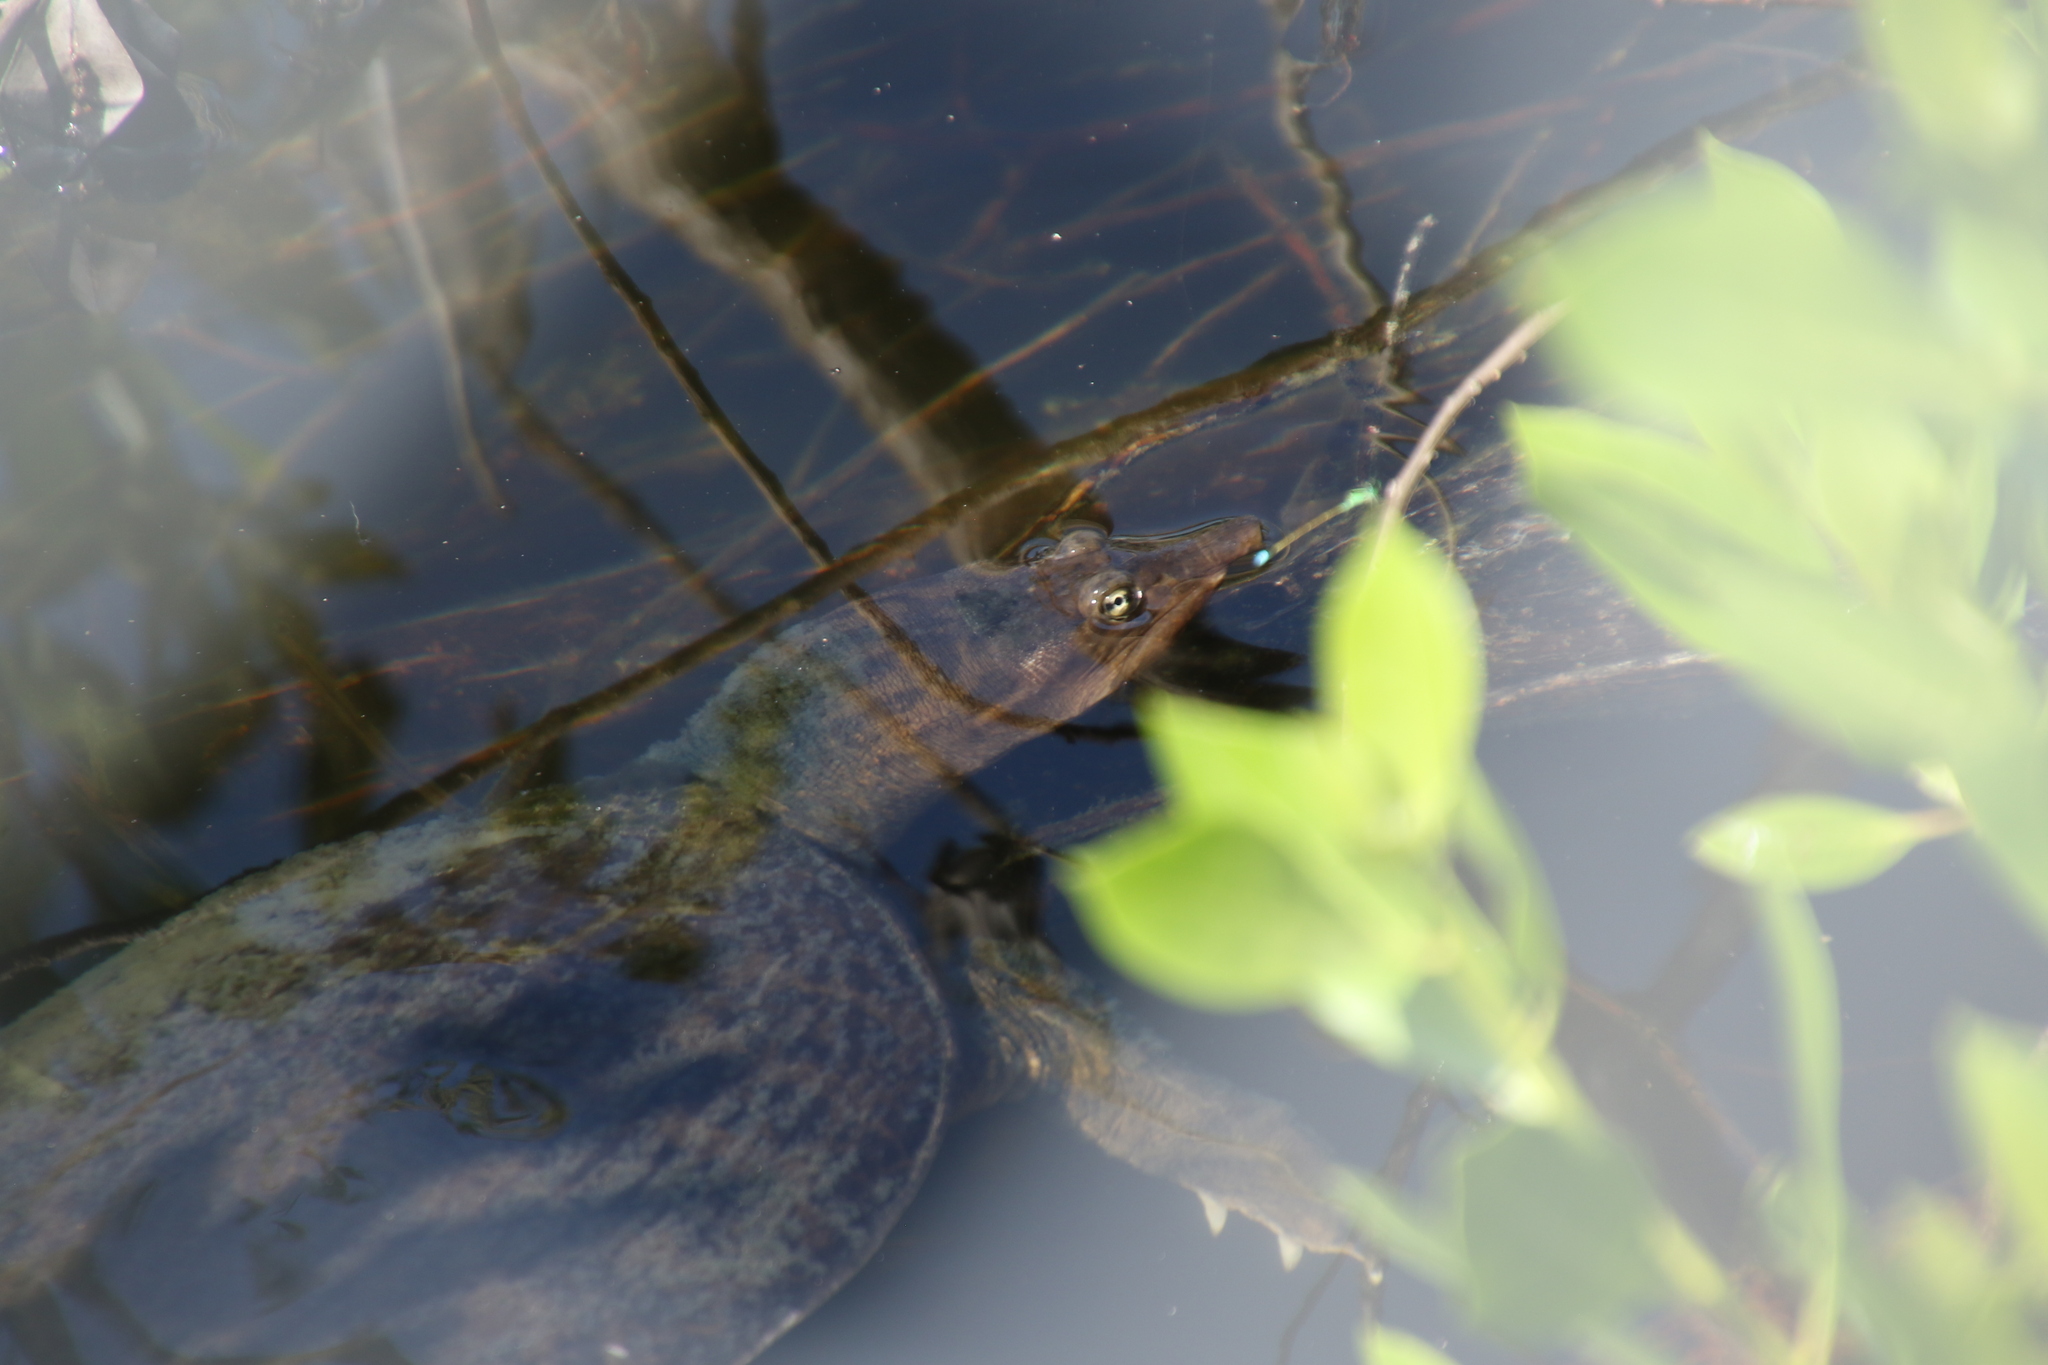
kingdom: Animalia
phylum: Chordata
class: Testudines
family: Trionychidae
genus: Apalone
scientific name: Apalone ferox
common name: Florida softshell turtle
